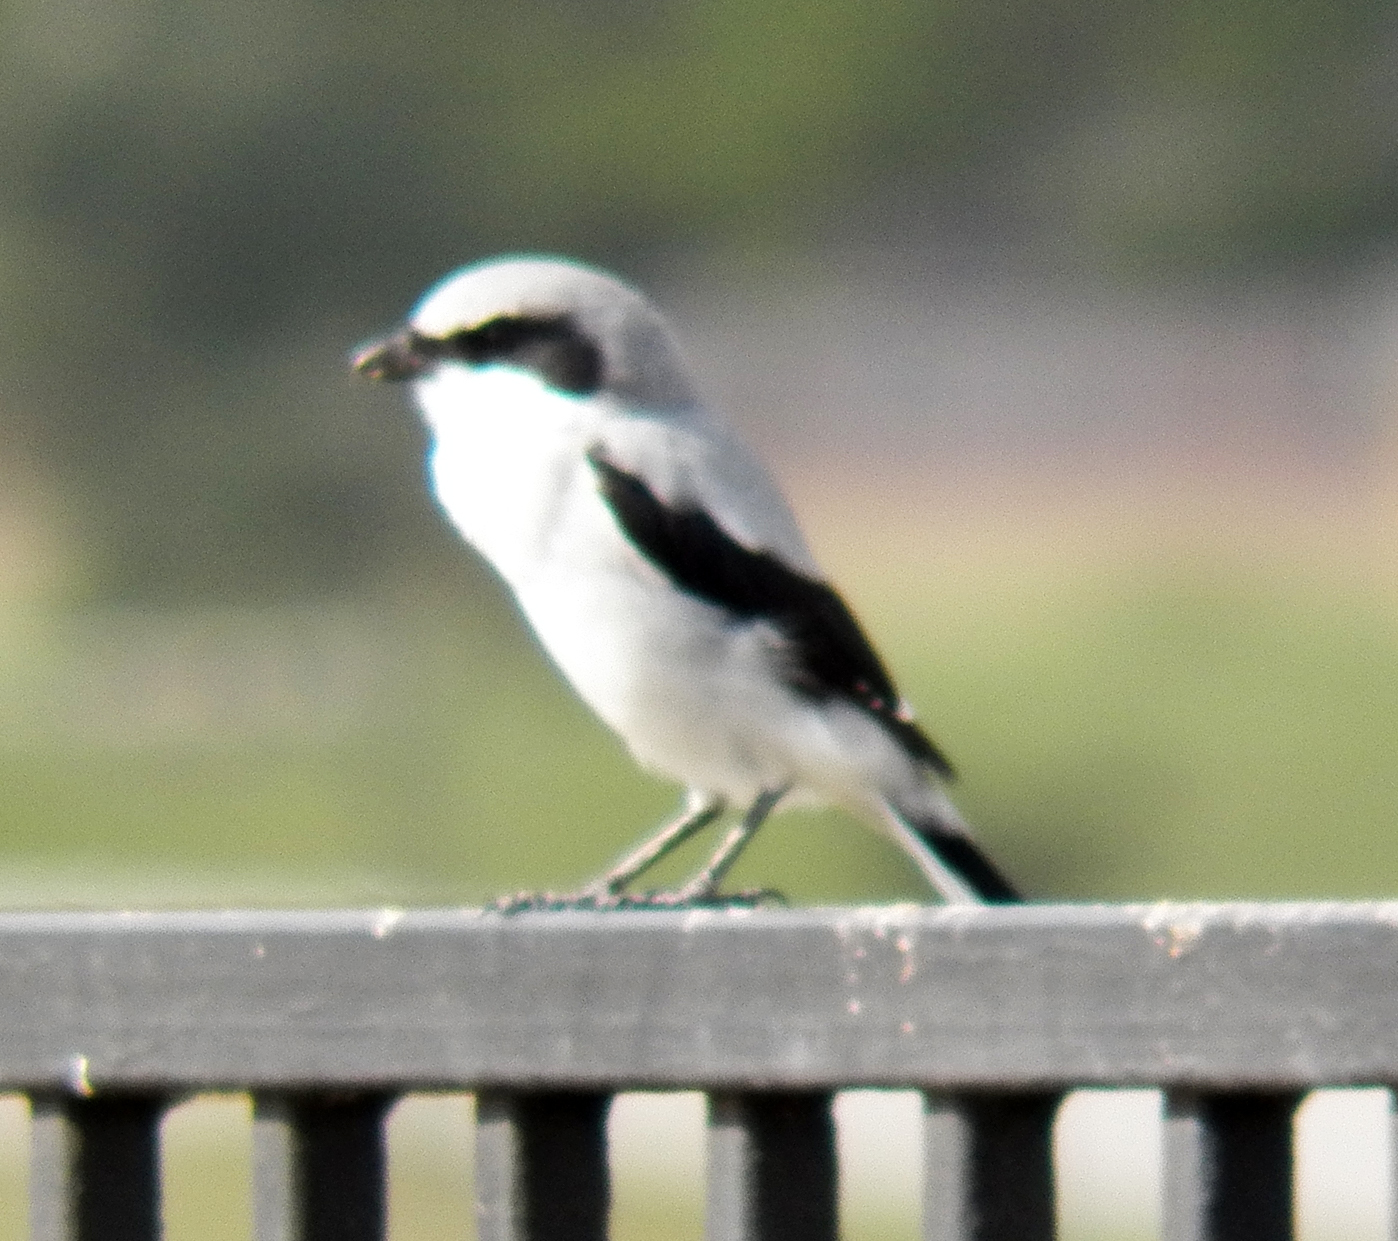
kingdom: Animalia
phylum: Chordata
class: Aves
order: Passeriformes
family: Laniidae
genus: Lanius
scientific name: Lanius ludovicianus
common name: Loggerhead shrike
